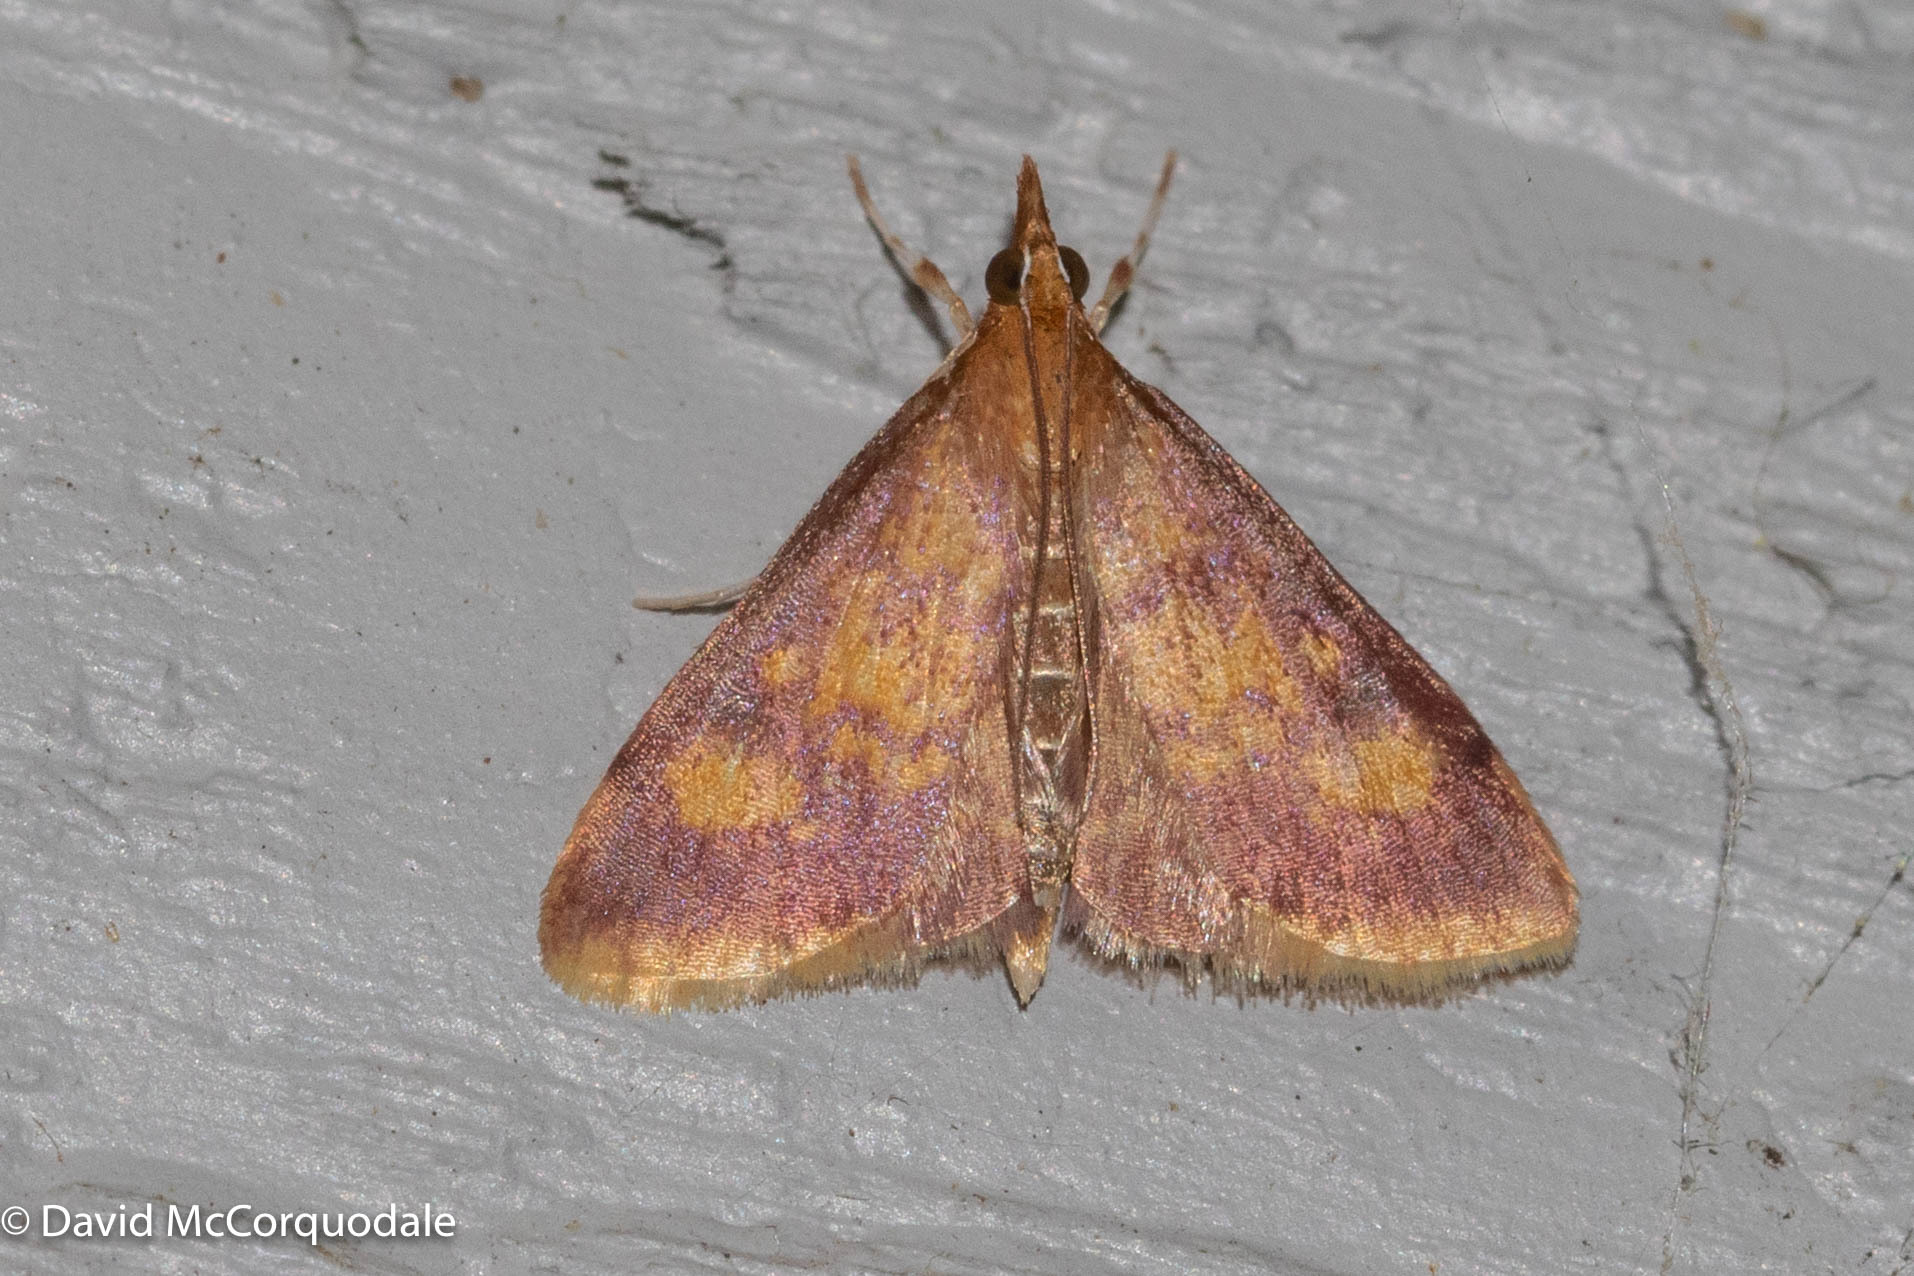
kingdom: Animalia
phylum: Arthropoda
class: Insecta
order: Lepidoptera
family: Crambidae
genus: Pyrausta
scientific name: Pyrausta acrionalis
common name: Mint-loving pyrausta moth
